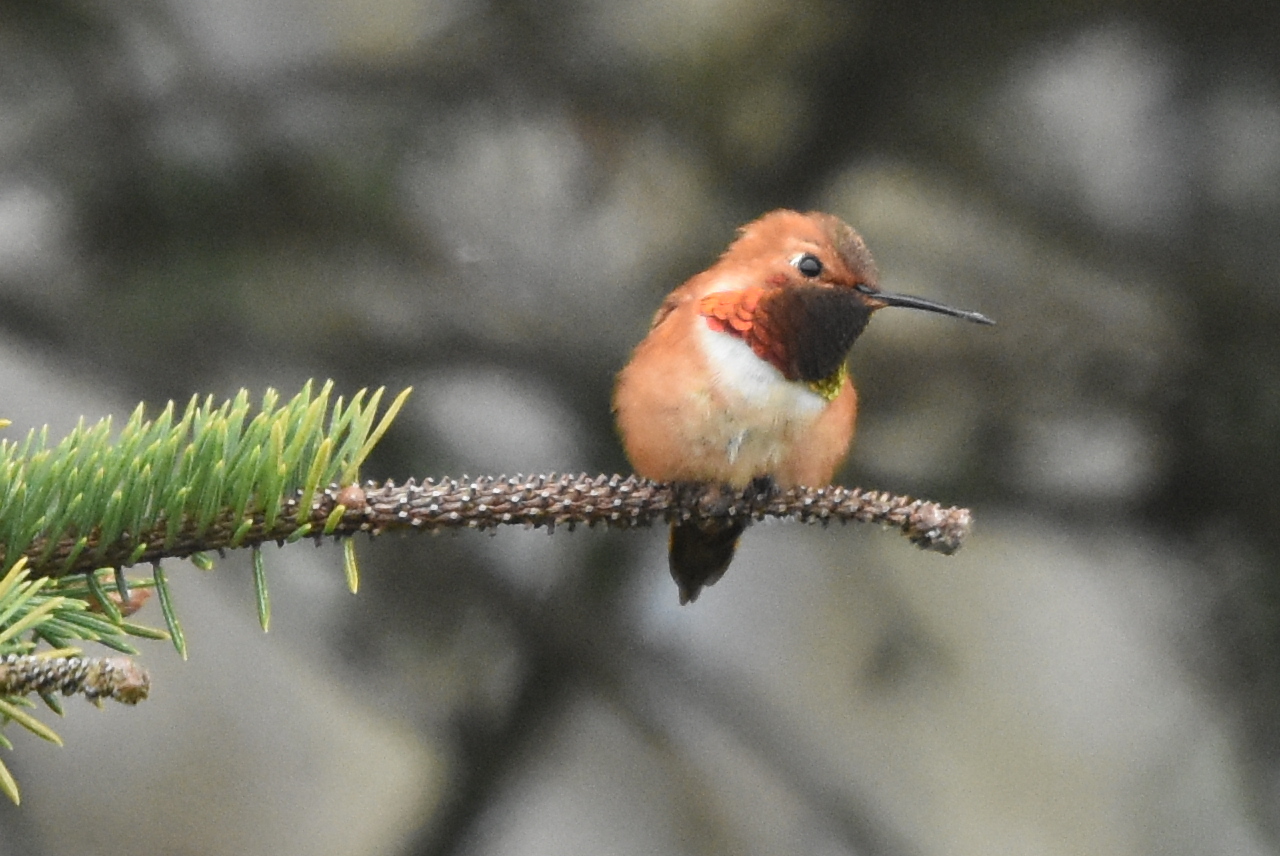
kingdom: Animalia
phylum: Chordata
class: Aves
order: Apodiformes
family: Trochilidae
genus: Selasphorus
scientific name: Selasphorus rufus
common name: Rufous hummingbird
